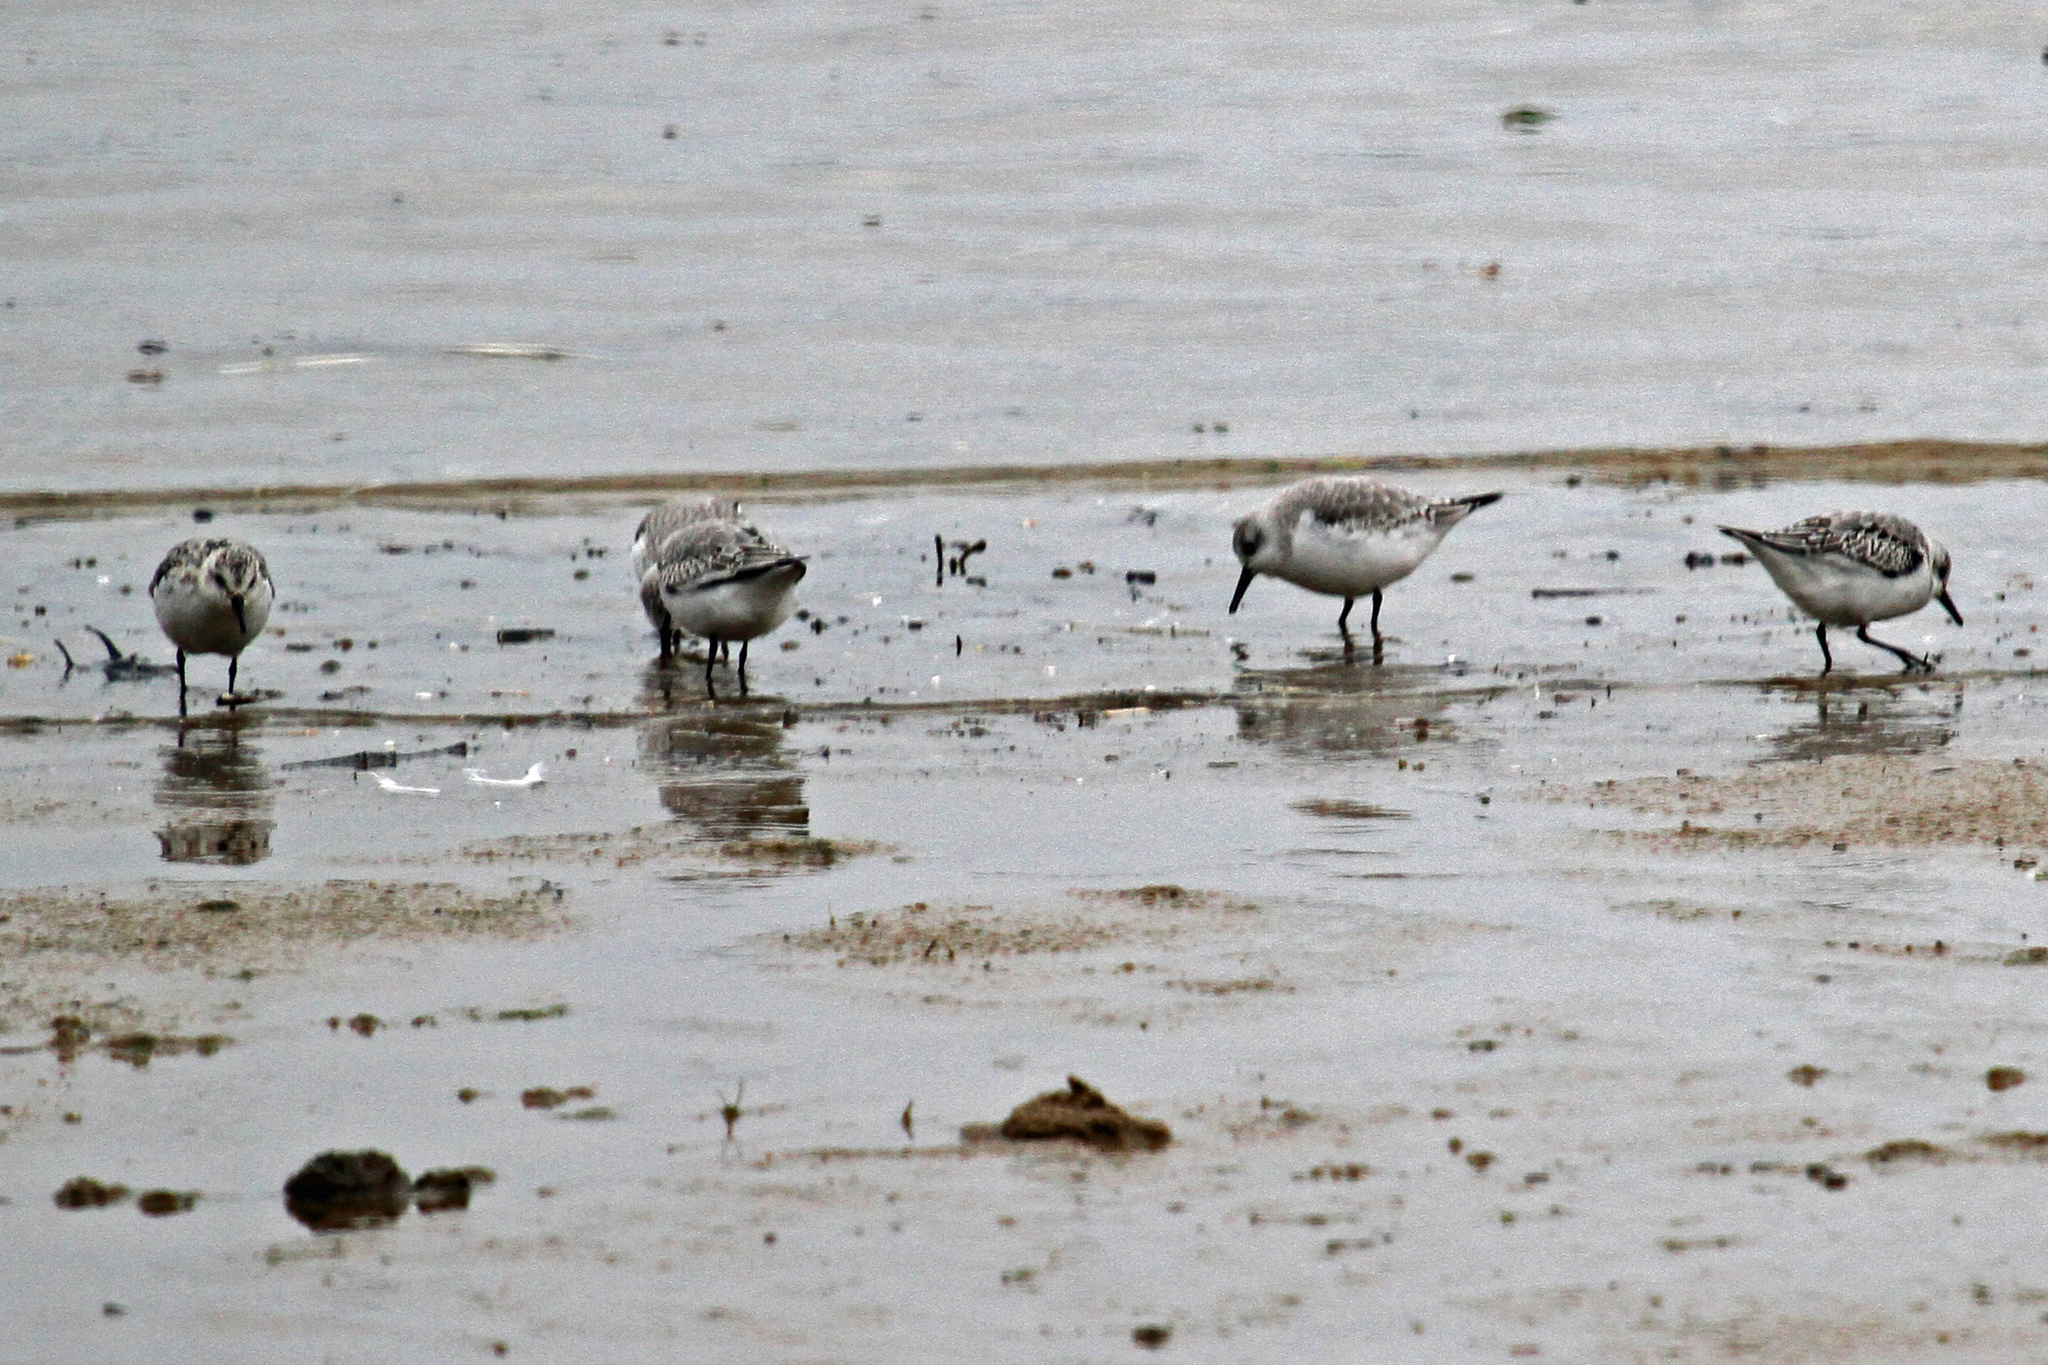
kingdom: Animalia
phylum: Chordata
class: Aves
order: Charadriiformes
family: Scolopacidae
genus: Calidris
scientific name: Calidris alba
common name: Sanderling
